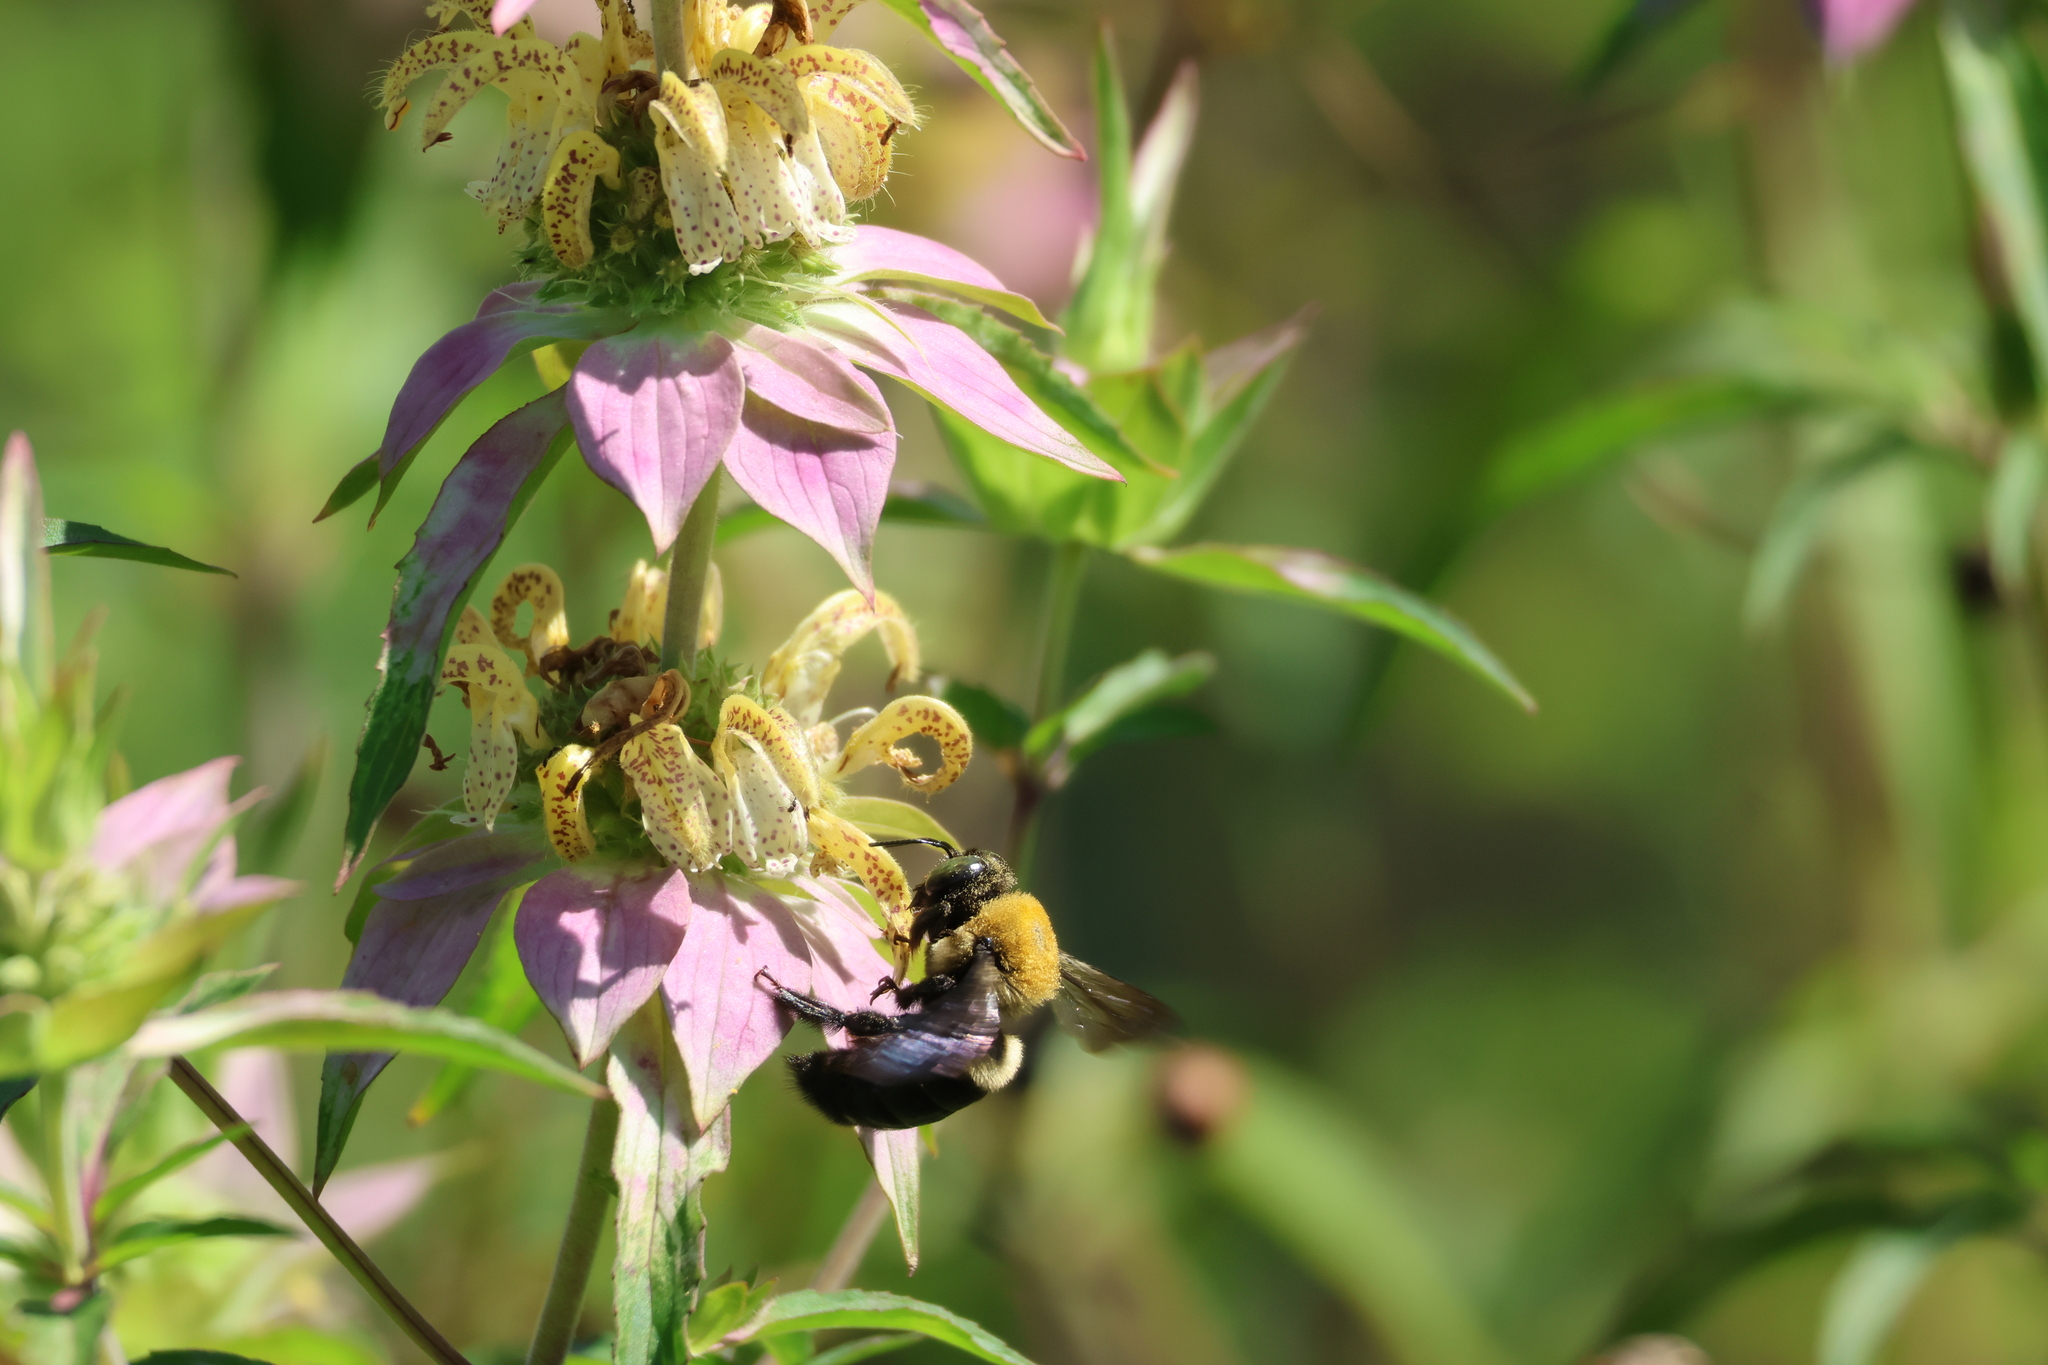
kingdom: Animalia
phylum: Arthropoda
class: Insecta
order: Hymenoptera
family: Apidae
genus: Xylocopa
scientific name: Xylocopa virginica
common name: Carpenter bee
